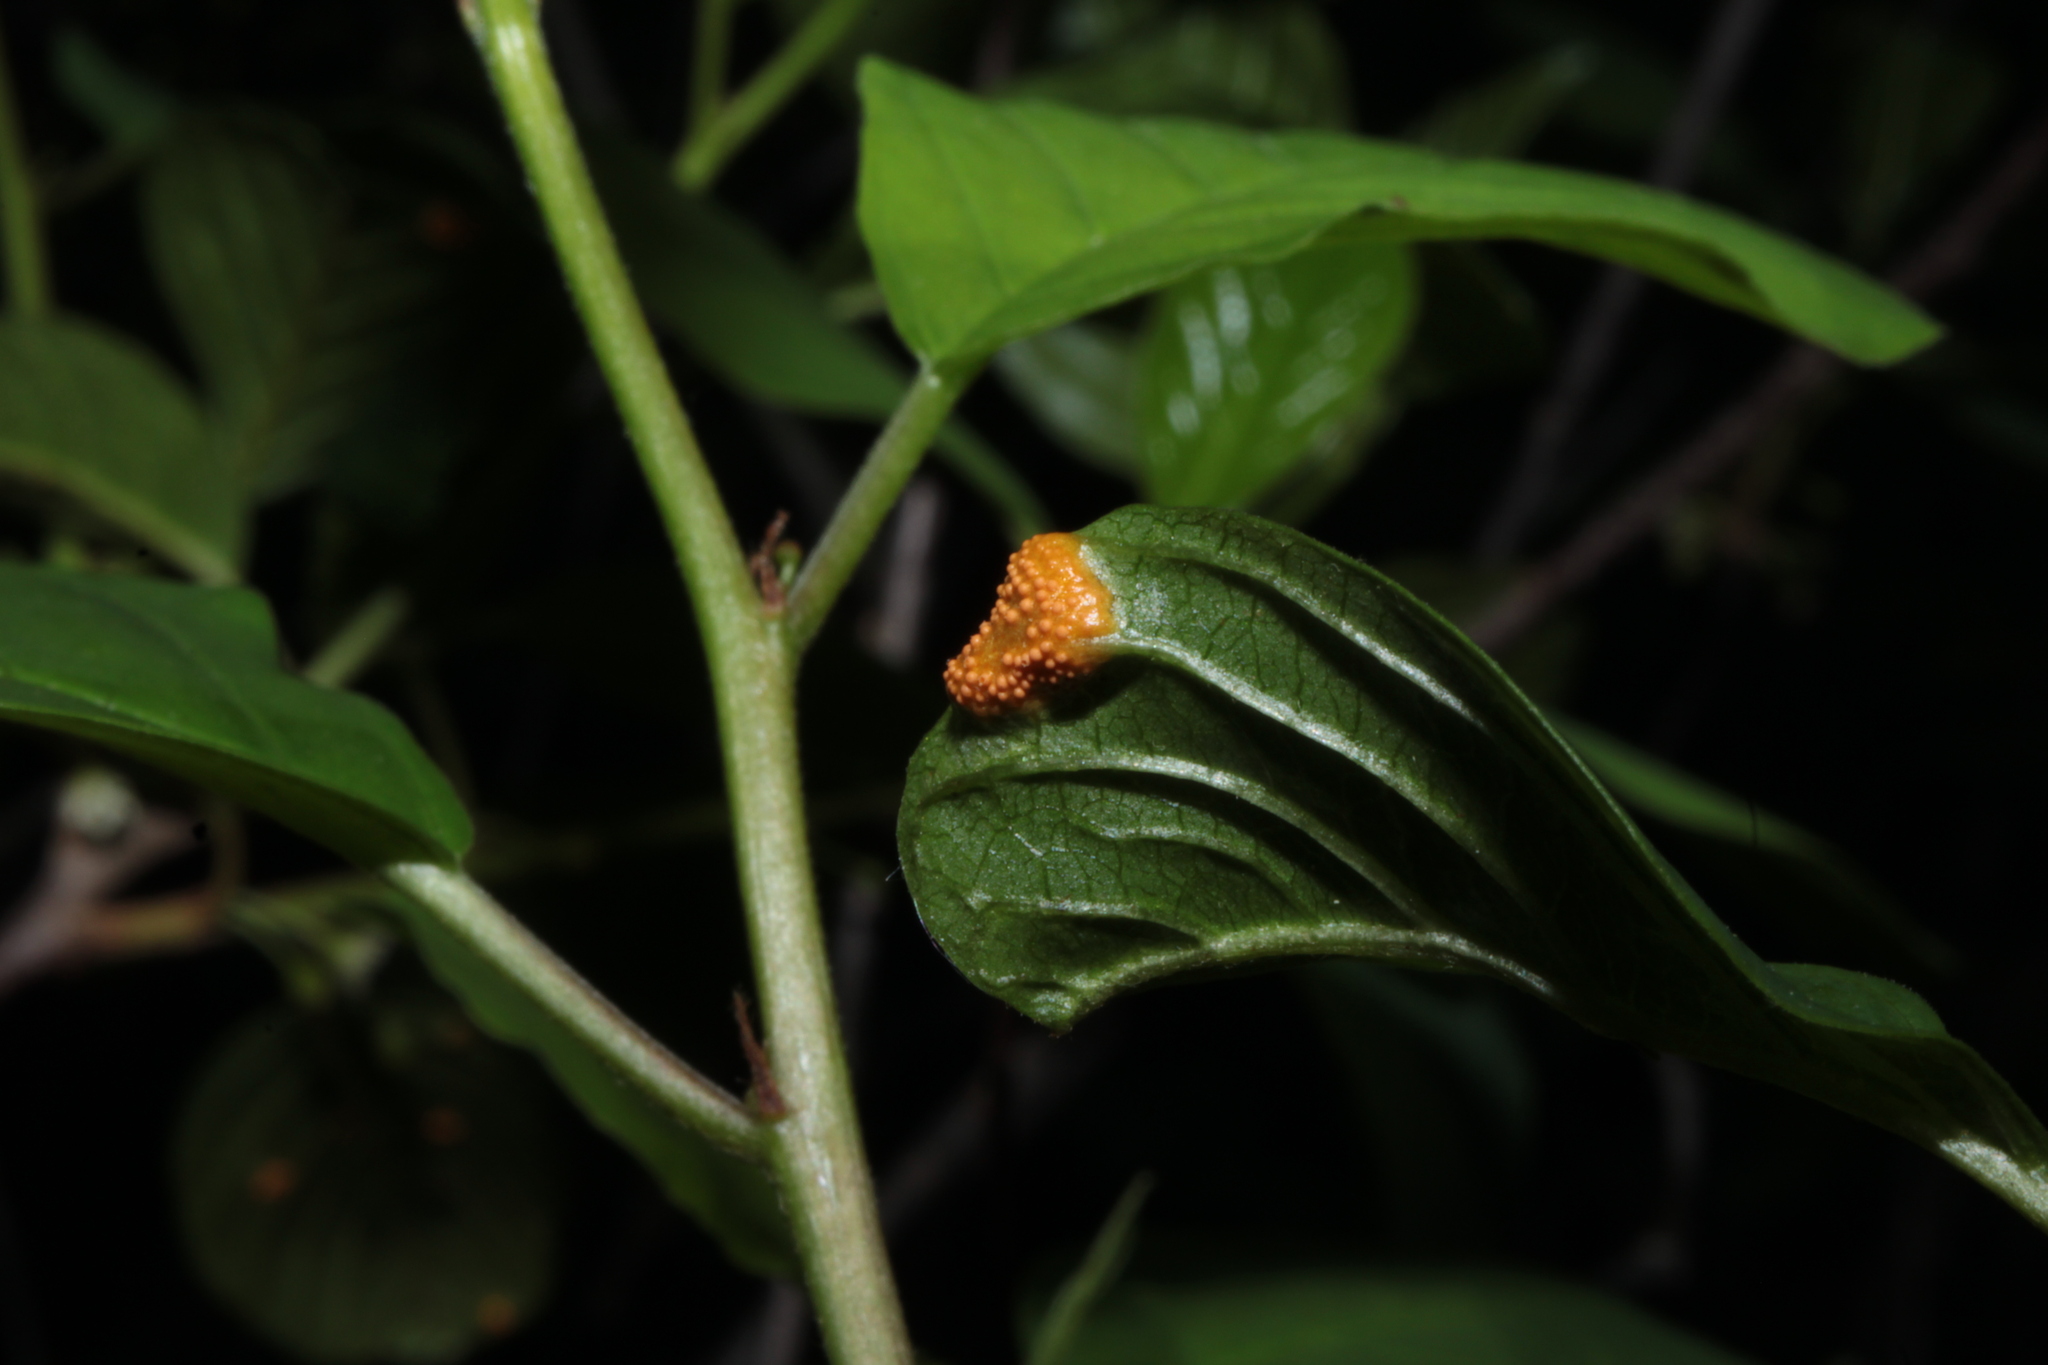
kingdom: Fungi
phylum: Basidiomycota
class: Pucciniomycetes
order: Pucciniales
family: Pucciniaceae
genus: Puccinia
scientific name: Puccinia coronata
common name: Crown rust
